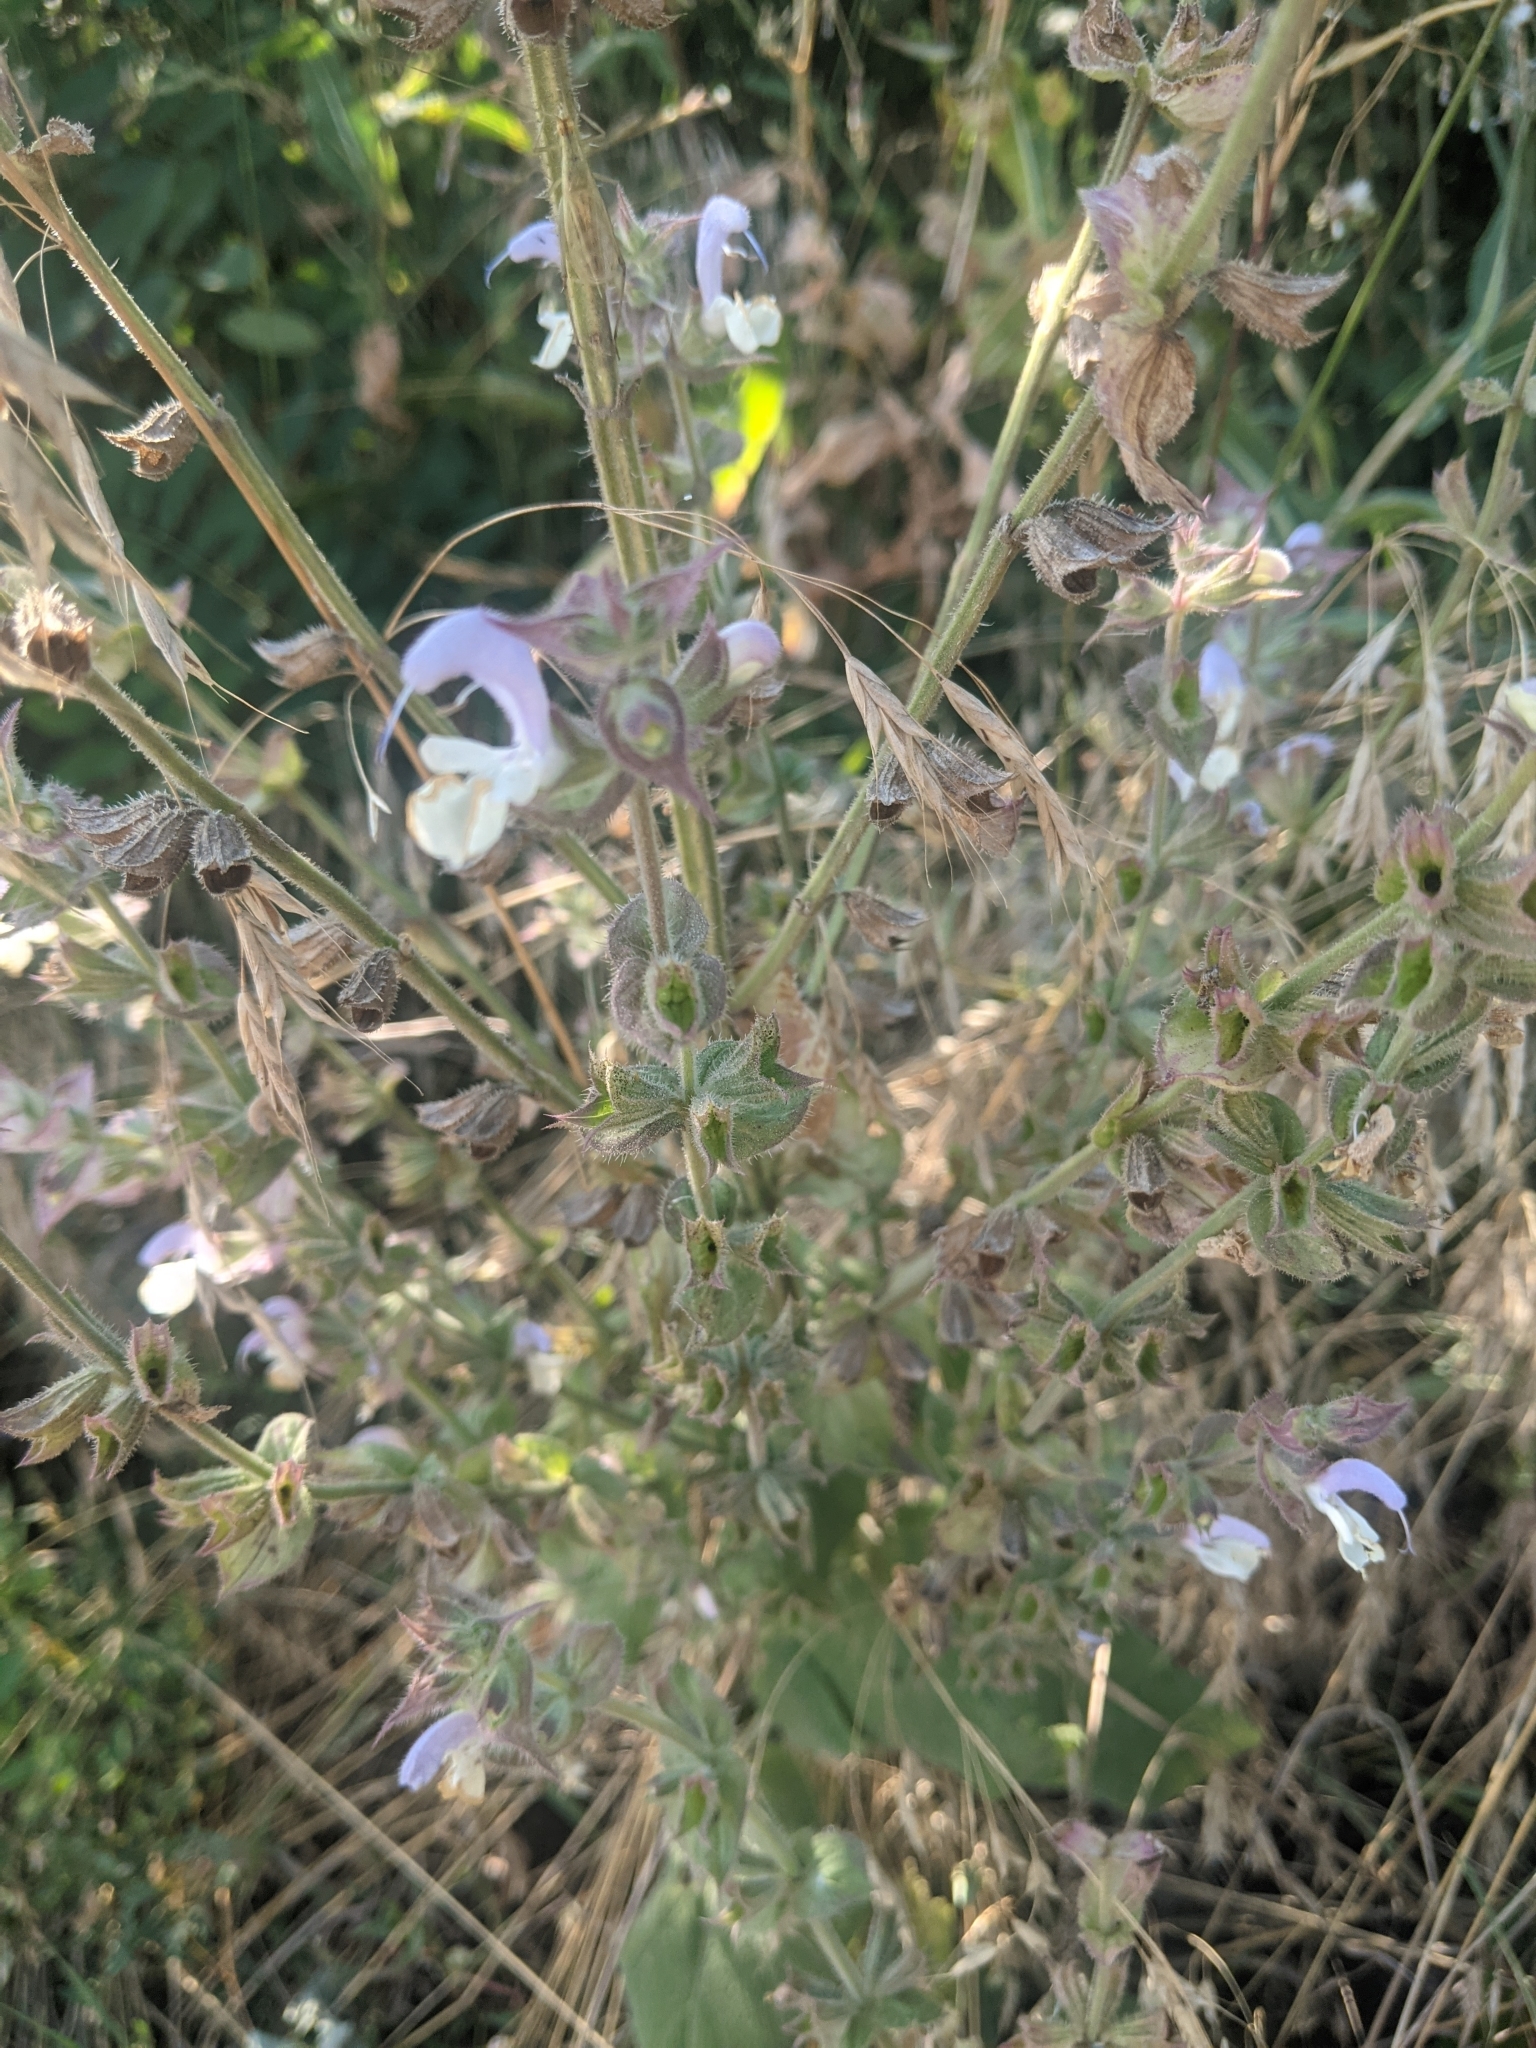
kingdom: Plantae
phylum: Tracheophyta
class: Magnoliopsida
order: Lamiales
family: Lamiaceae
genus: Salvia
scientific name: Salvia sclarea
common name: Clary
